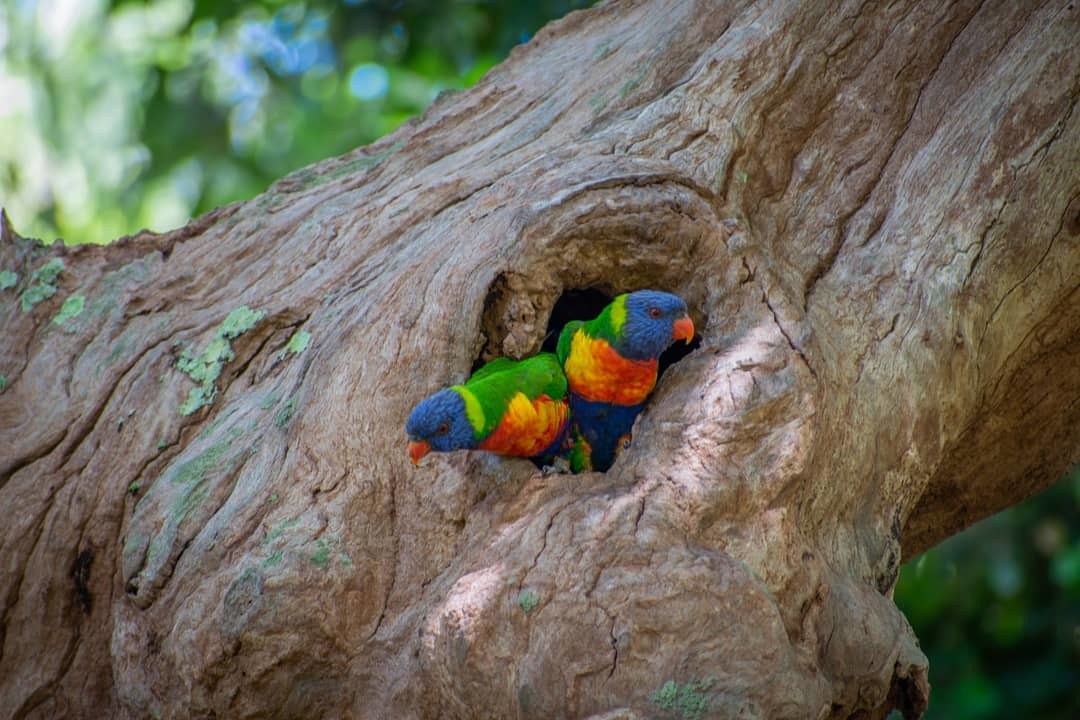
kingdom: Animalia
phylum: Chordata
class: Aves
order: Psittaciformes
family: Psittacidae
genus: Trichoglossus
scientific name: Trichoglossus haematodus
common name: Coconut lorikeet
